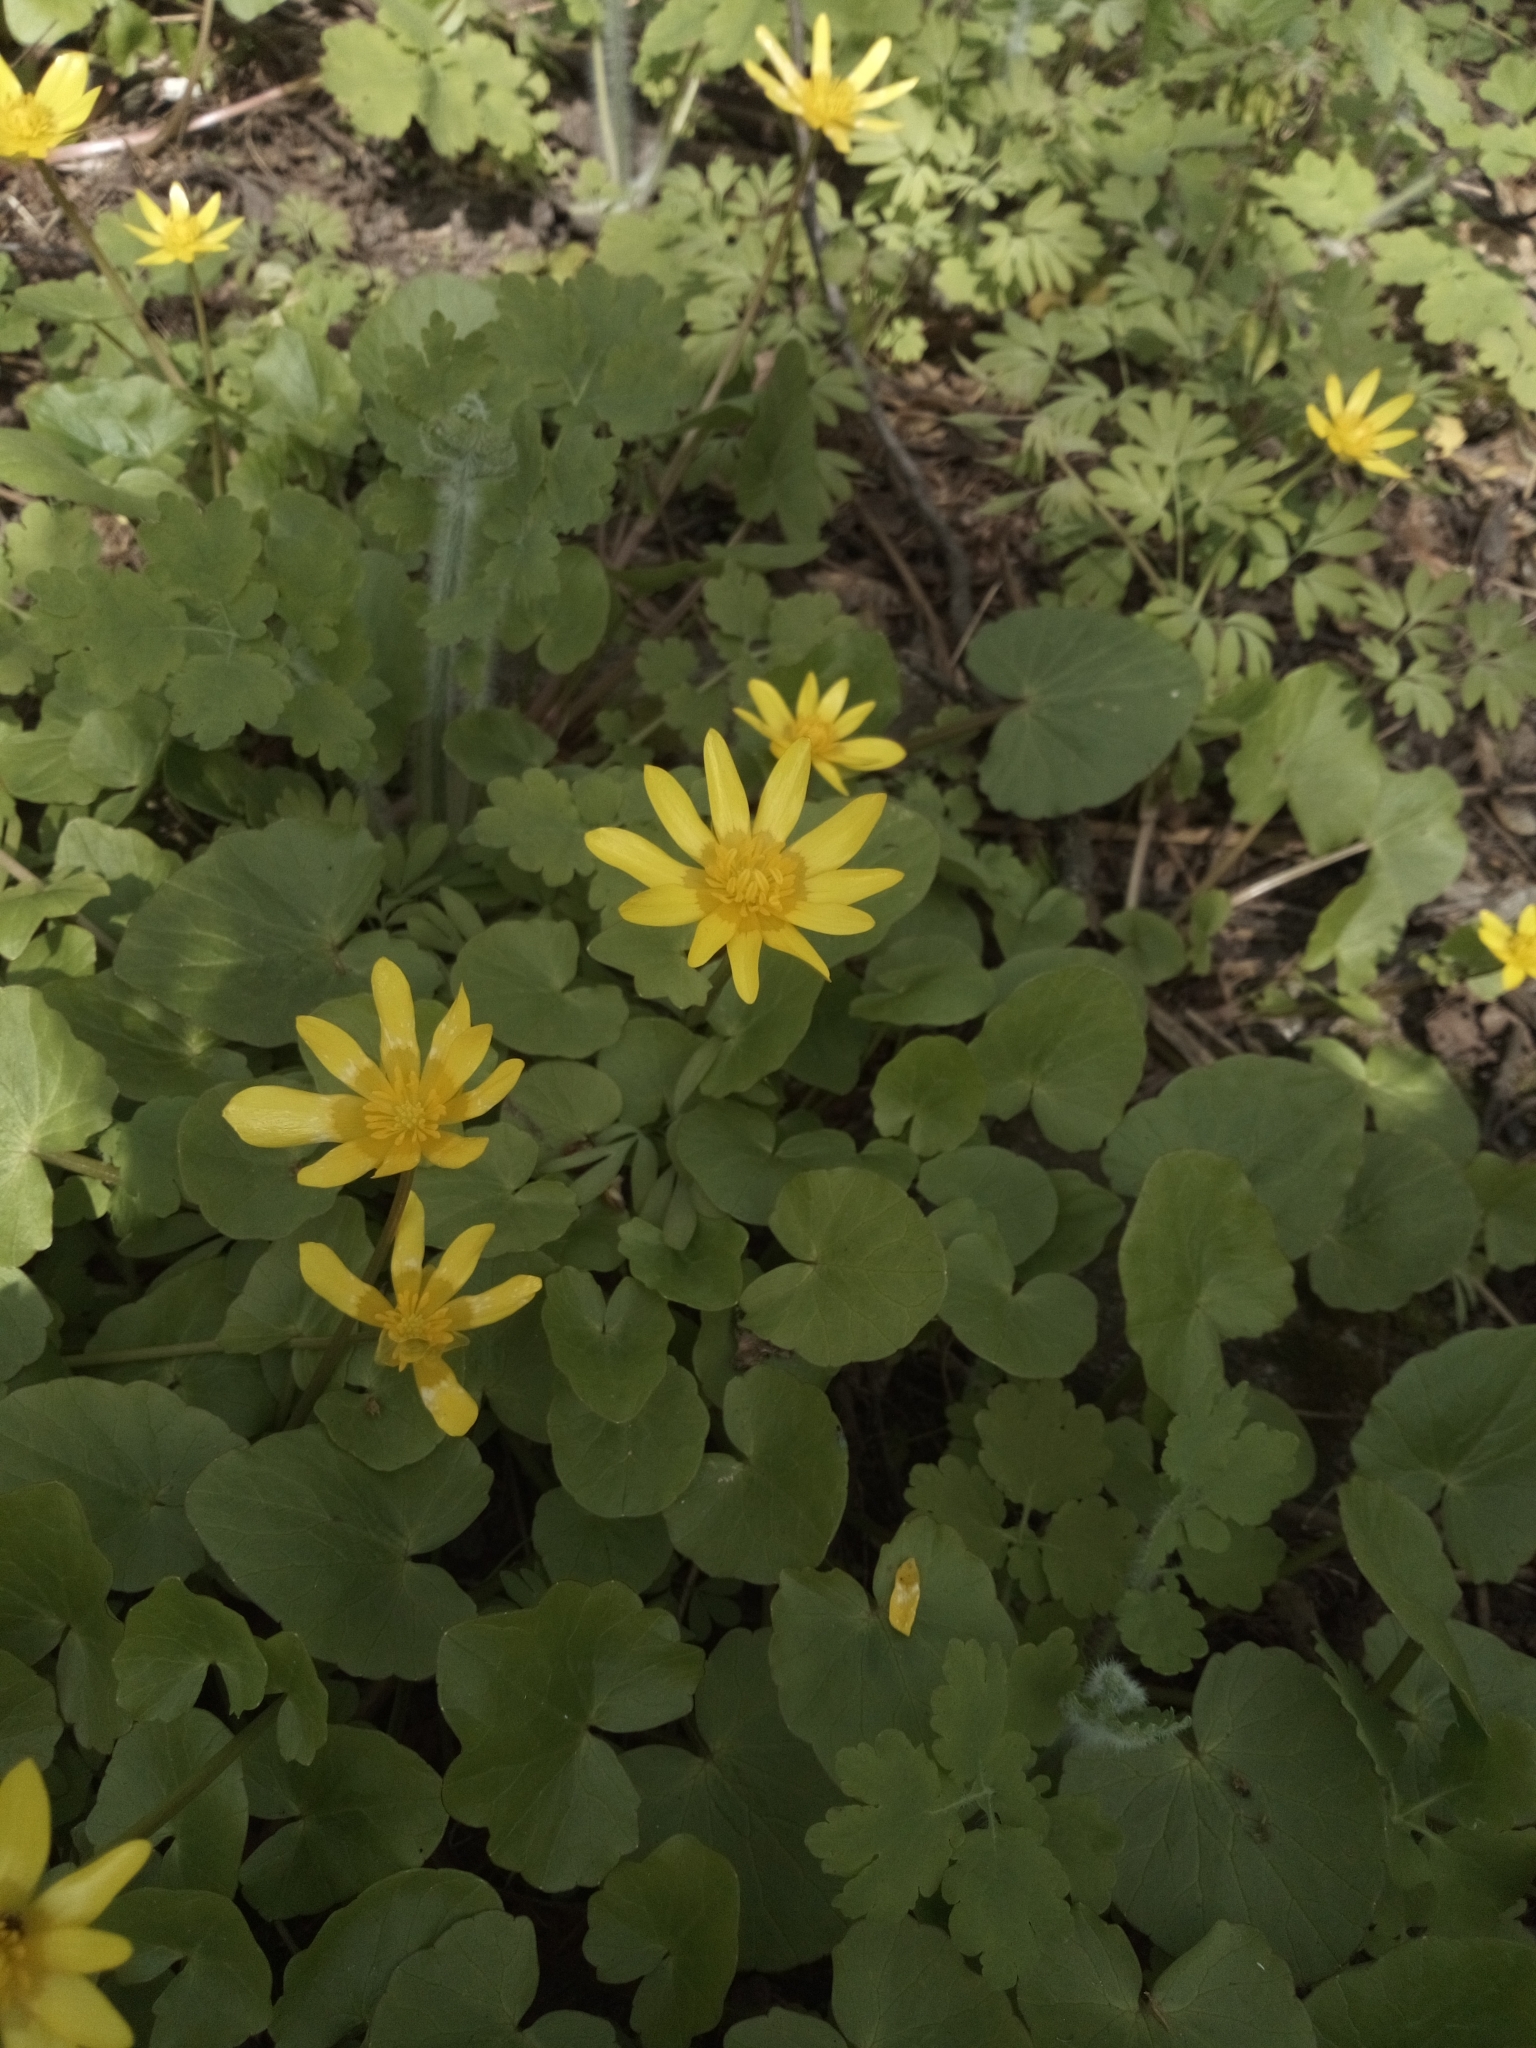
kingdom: Plantae
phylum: Tracheophyta
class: Magnoliopsida
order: Ranunculales
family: Ranunculaceae
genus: Ficaria
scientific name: Ficaria verna
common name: Lesser celandine
